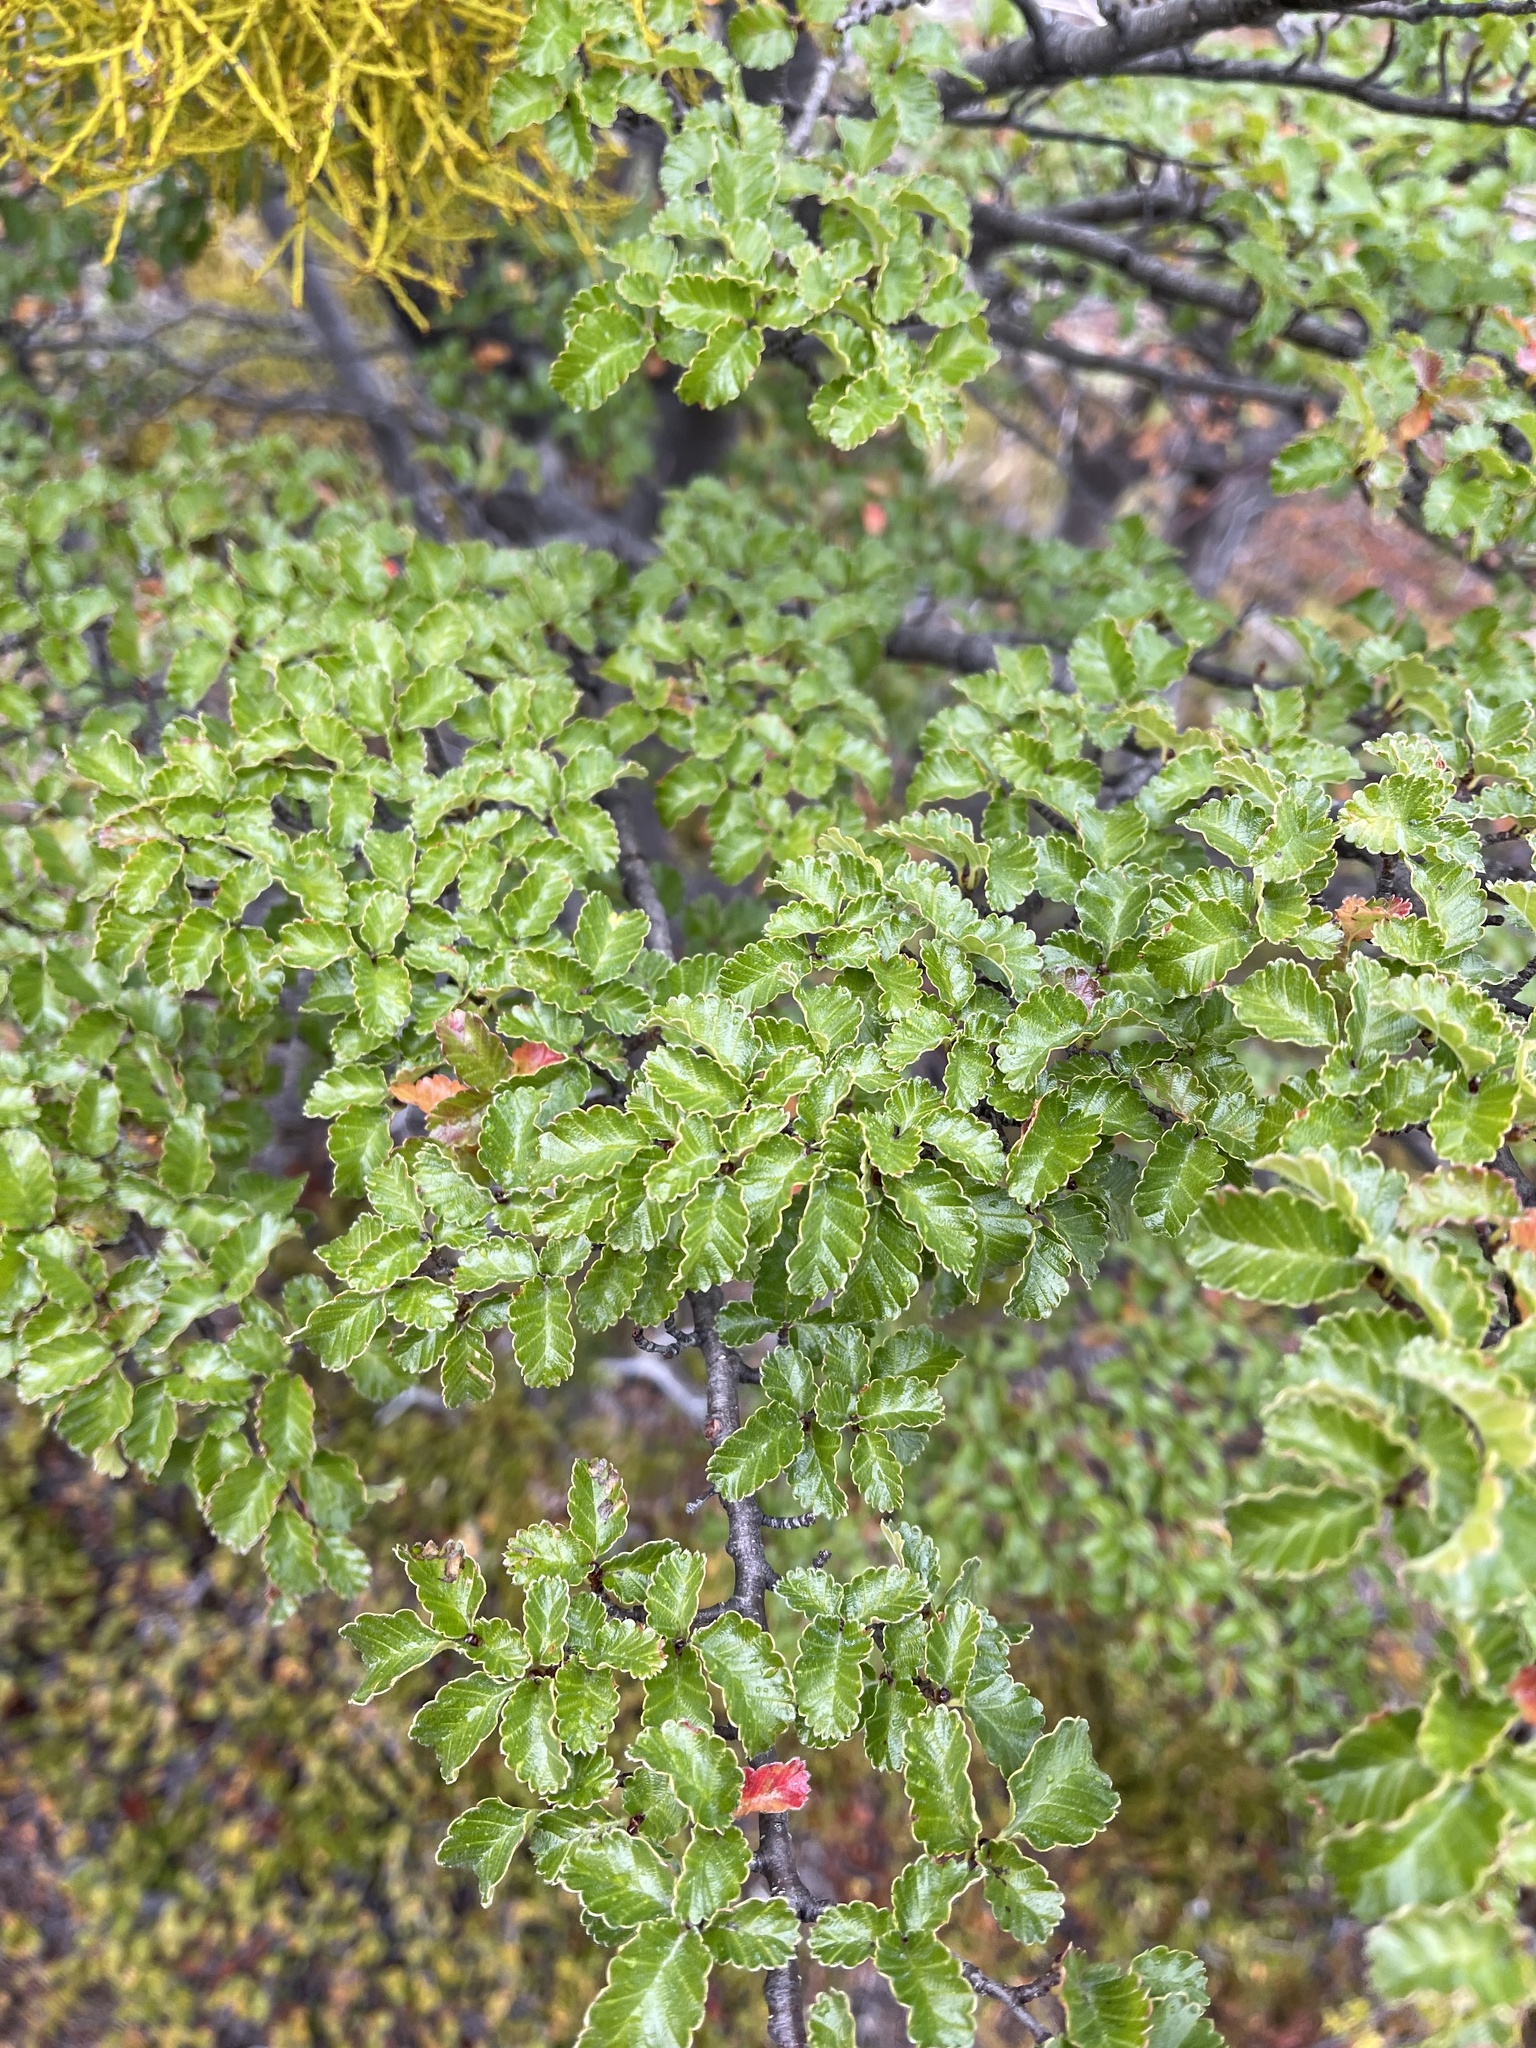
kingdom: Plantae
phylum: Tracheophyta
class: Magnoliopsida
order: Fagales
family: Nothofagaceae
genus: Nothofagus
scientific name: Nothofagus antarctica
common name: Antarctic beech
